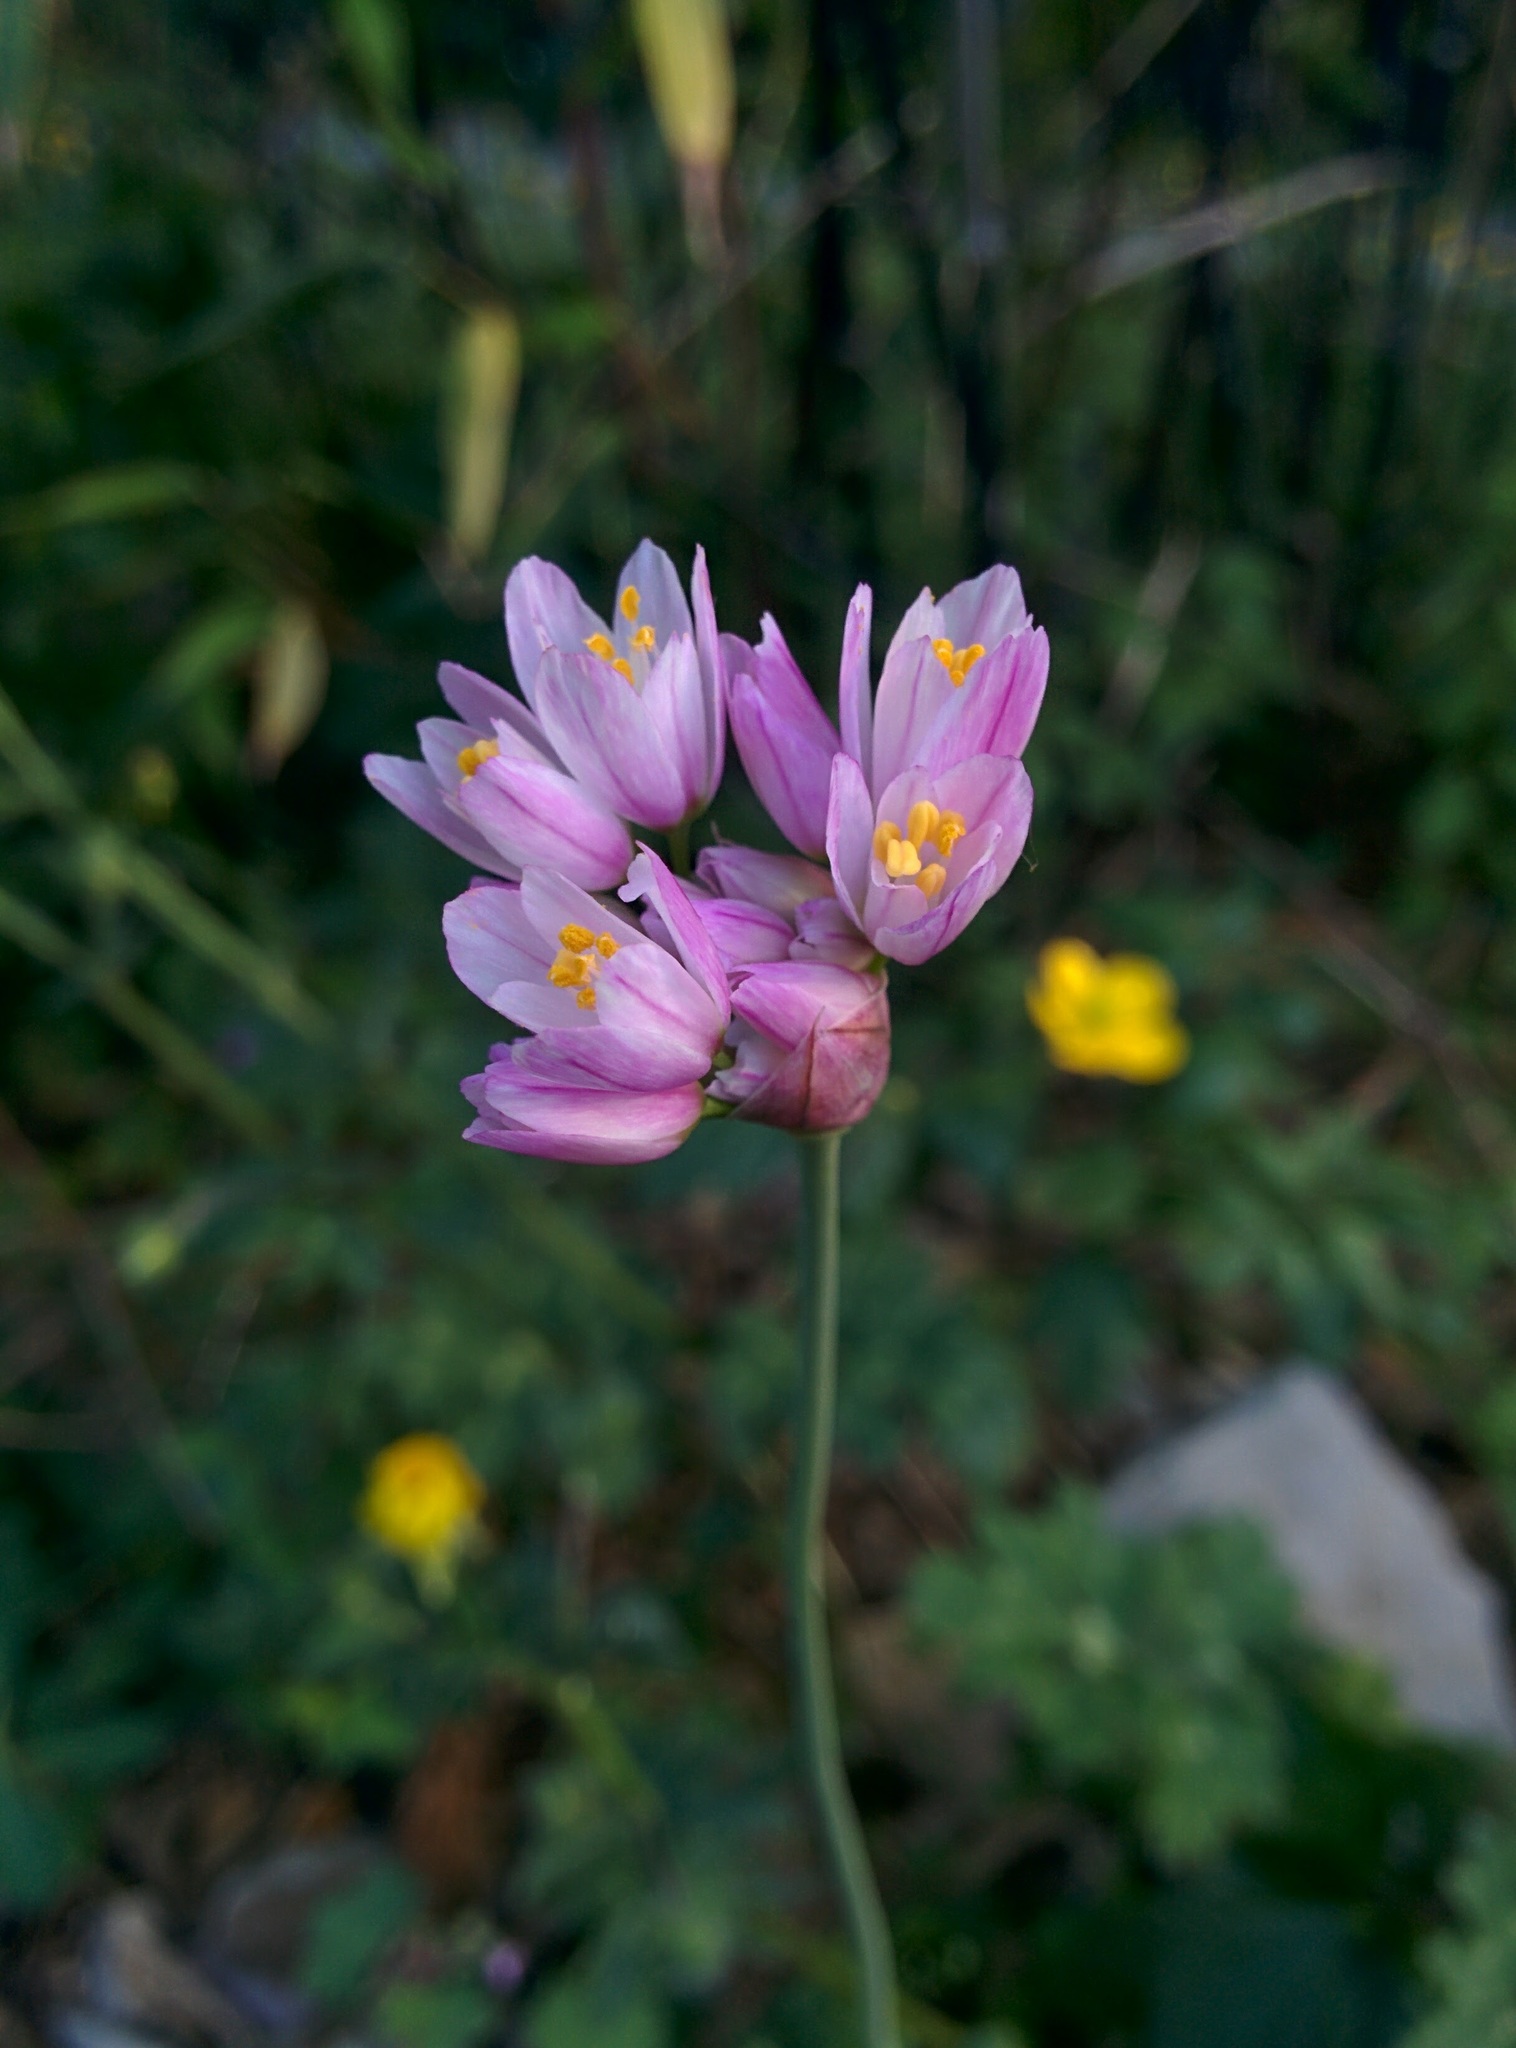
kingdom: Plantae
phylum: Tracheophyta
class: Liliopsida
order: Asparagales
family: Amaryllidaceae
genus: Allium
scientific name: Allium roseum
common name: Rosy garlic
